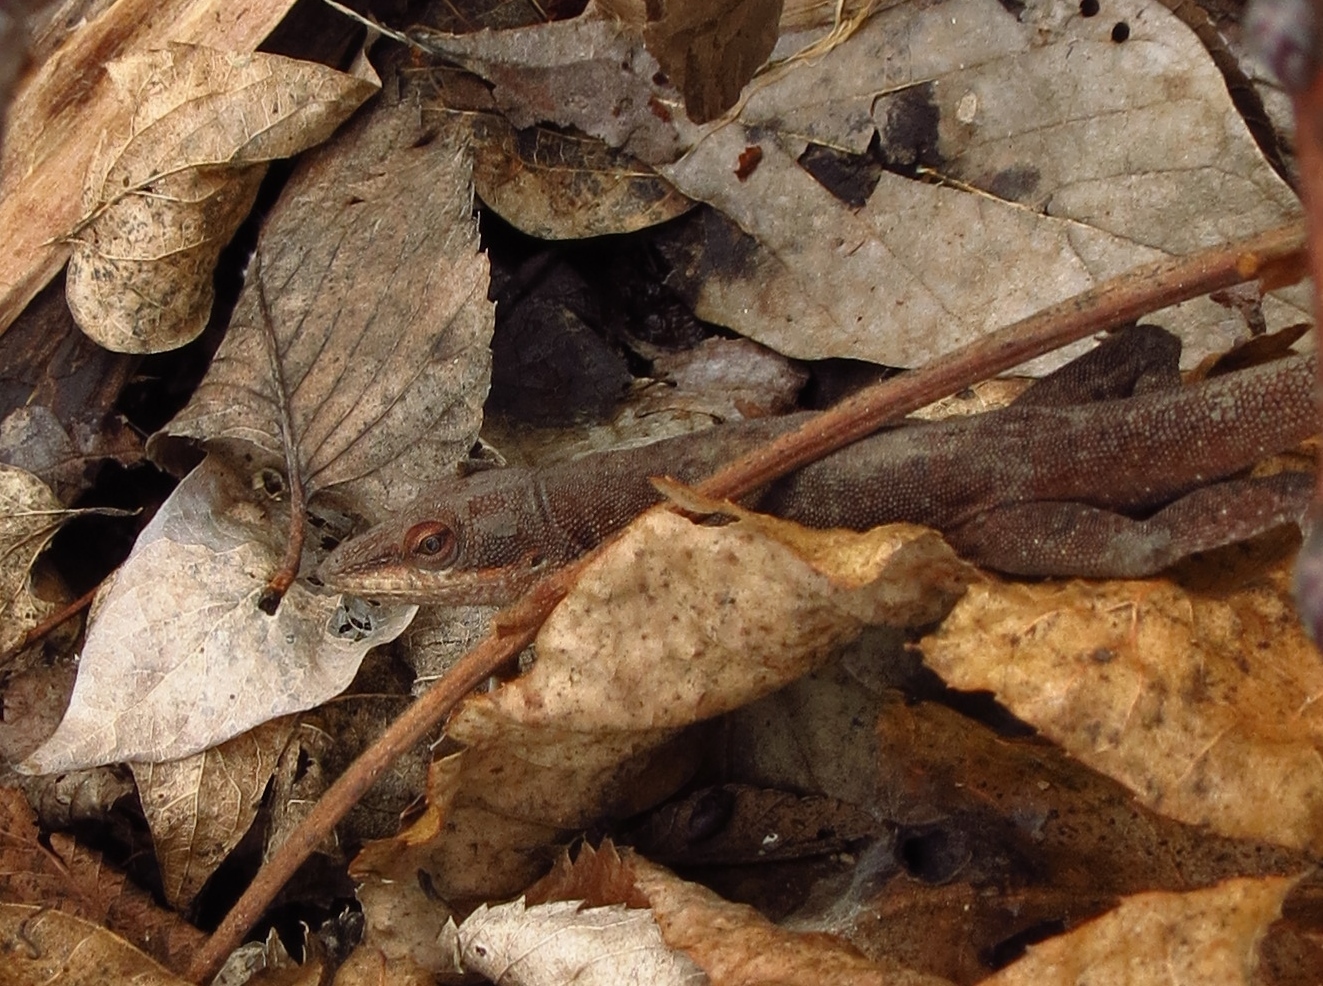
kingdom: Animalia
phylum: Chordata
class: Squamata
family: Dactyloidae
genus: Anolis
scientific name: Anolis carolinensis
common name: Green anole
